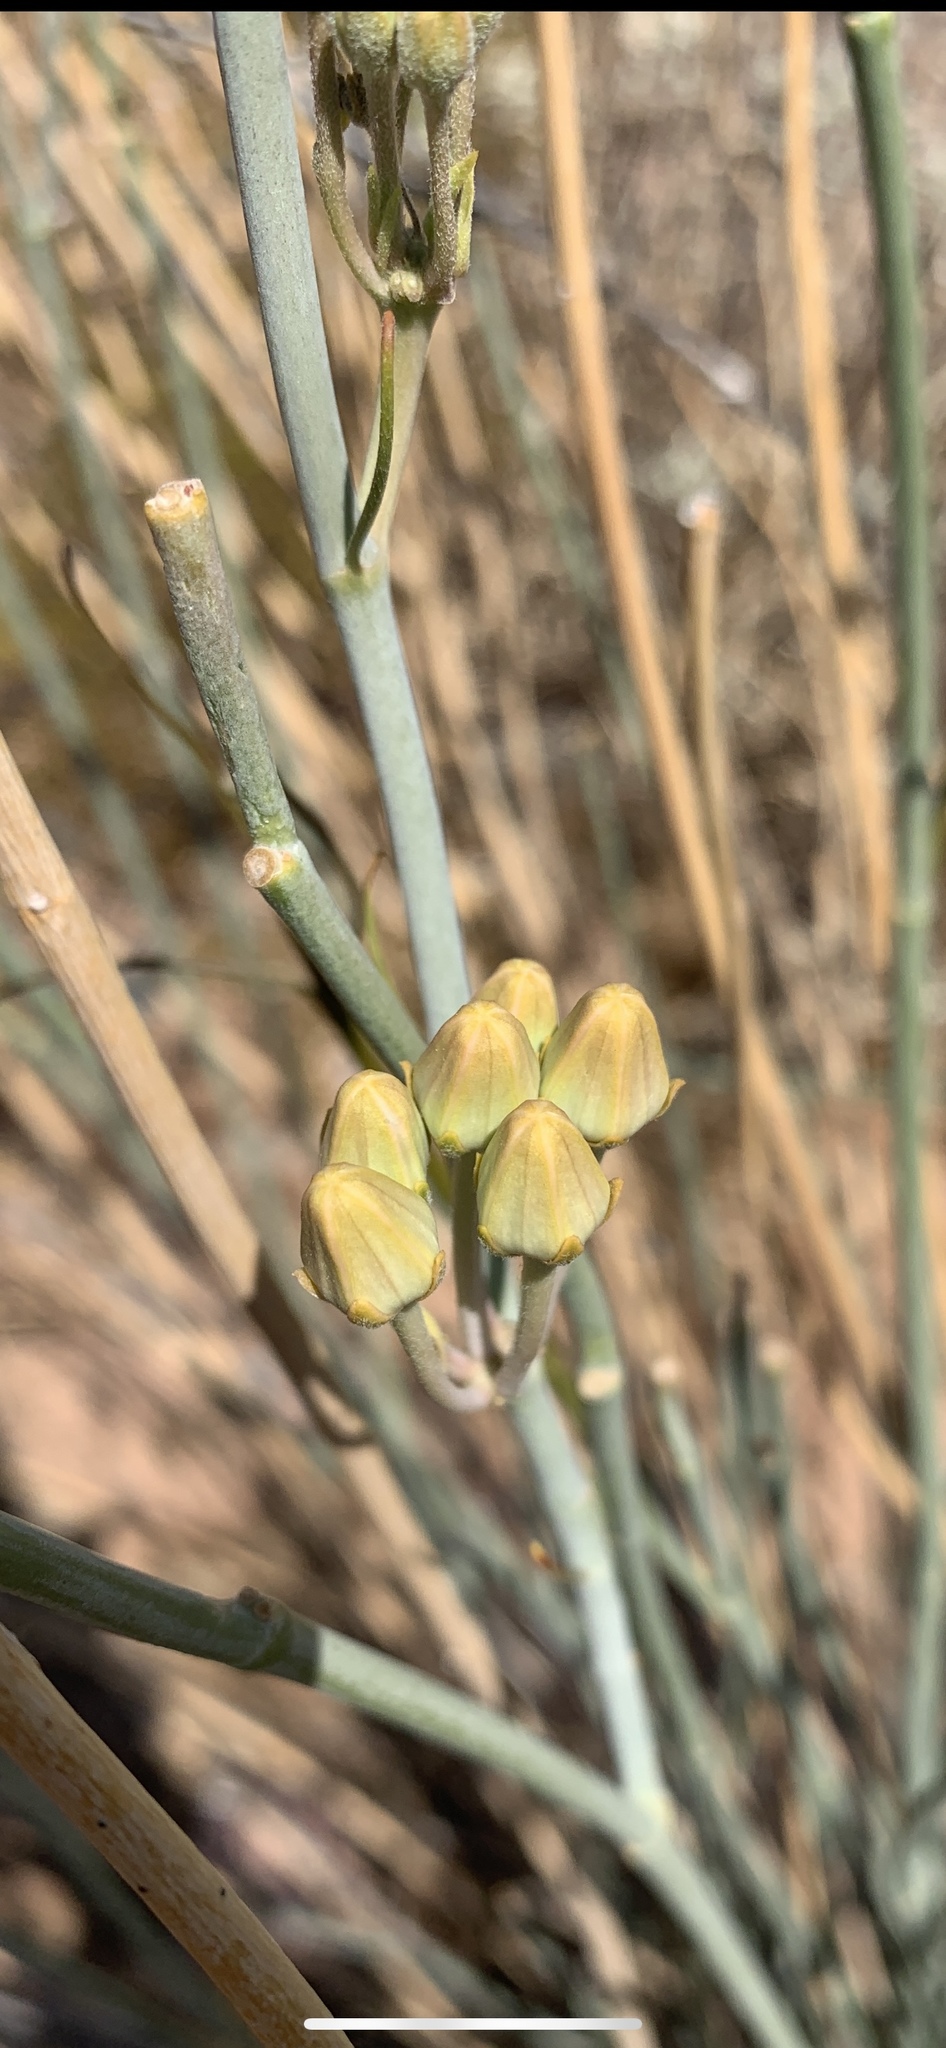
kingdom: Plantae
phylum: Tracheophyta
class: Magnoliopsida
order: Gentianales
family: Apocynaceae
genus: Asclepias
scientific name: Asclepias subulata
